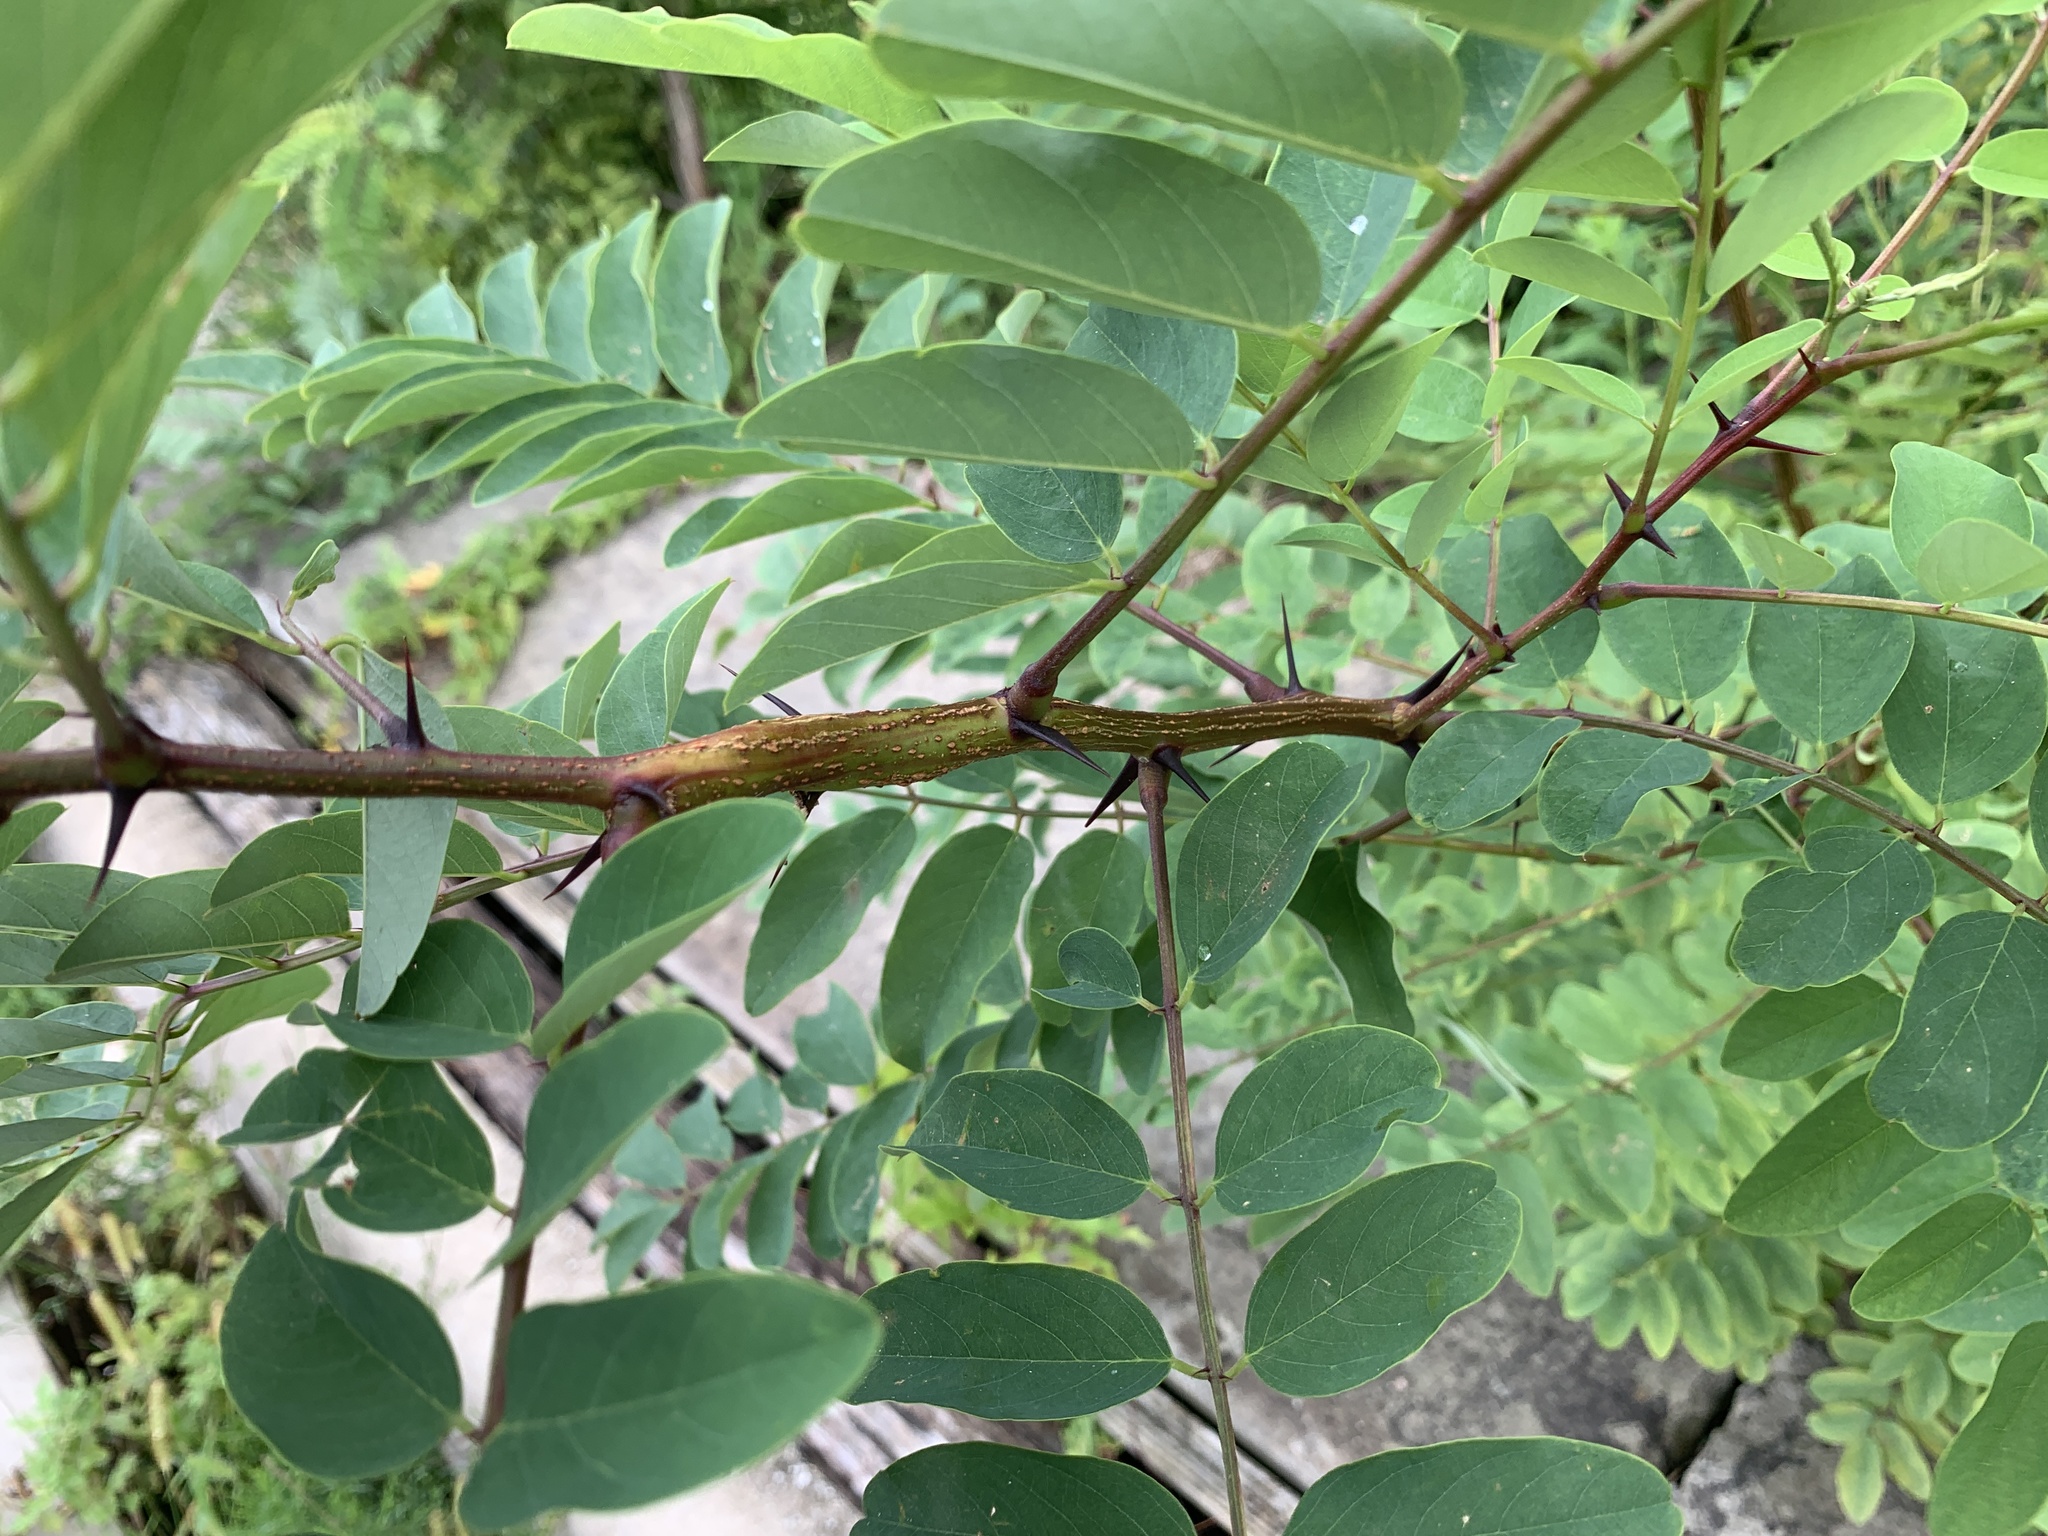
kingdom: Plantae
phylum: Tracheophyta
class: Magnoliopsida
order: Fabales
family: Fabaceae
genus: Robinia
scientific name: Robinia pseudoacacia
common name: Black locust
